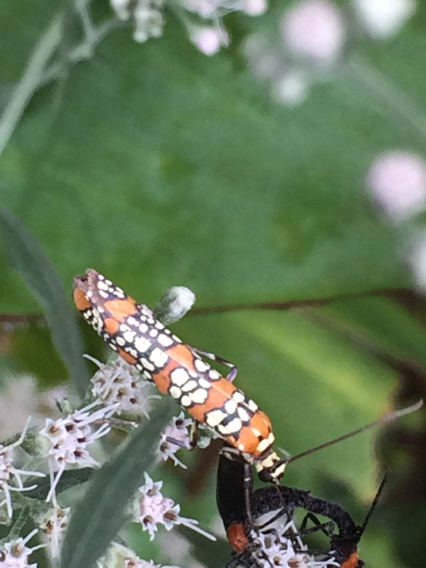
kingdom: Animalia
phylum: Arthropoda
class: Insecta
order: Lepidoptera
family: Attevidae
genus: Atteva
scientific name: Atteva punctella
